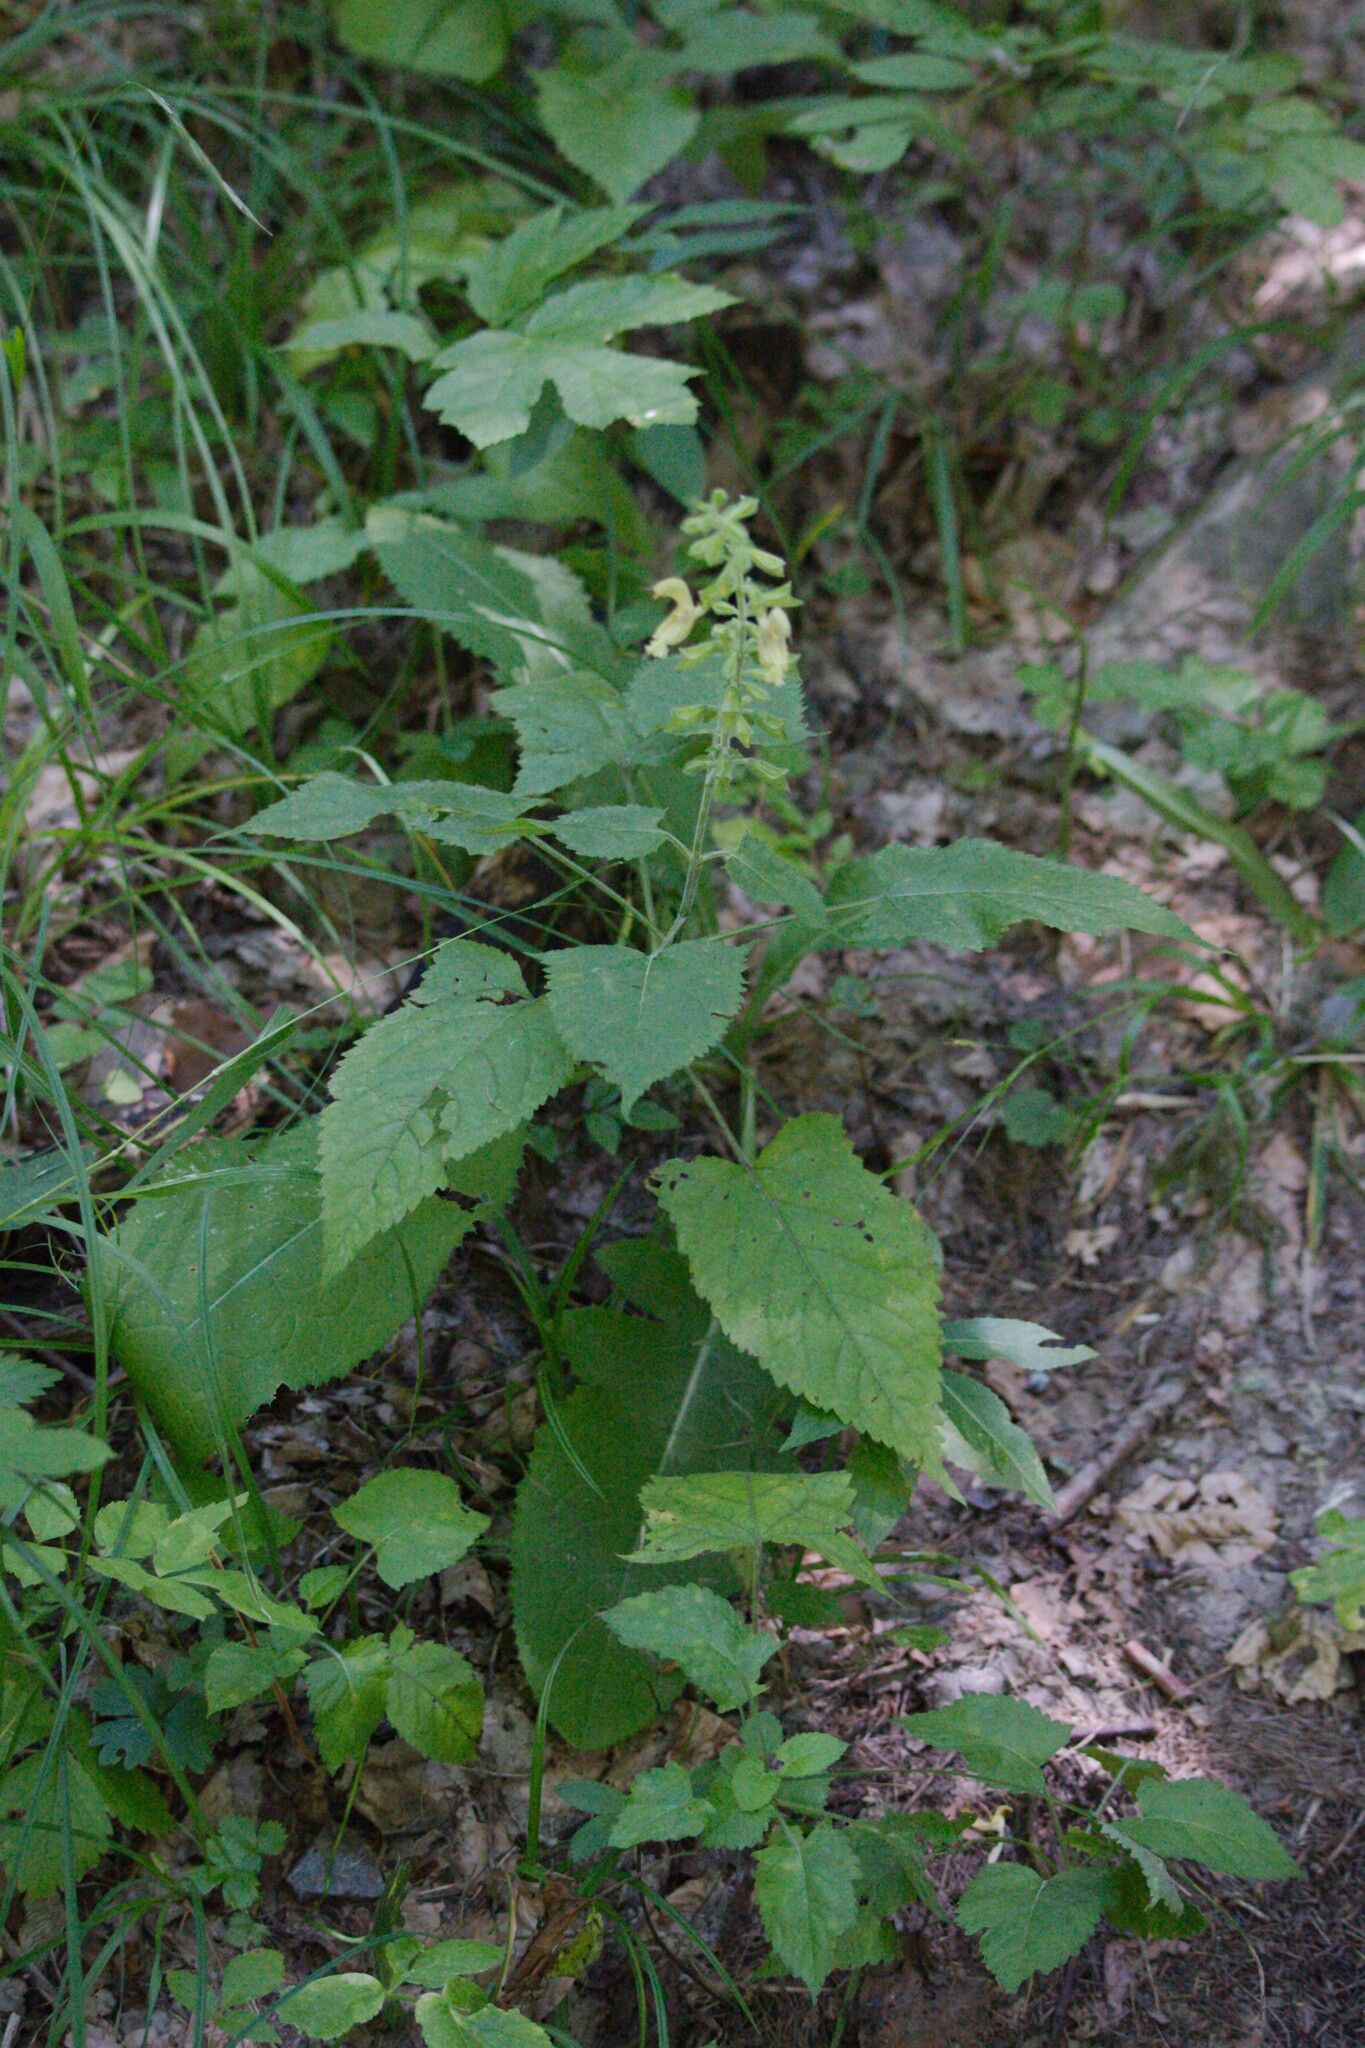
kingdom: Plantae
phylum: Tracheophyta
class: Magnoliopsida
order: Lamiales
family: Lamiaceae
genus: Salvia
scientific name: Salvia glutinosa
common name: Sticky clary
